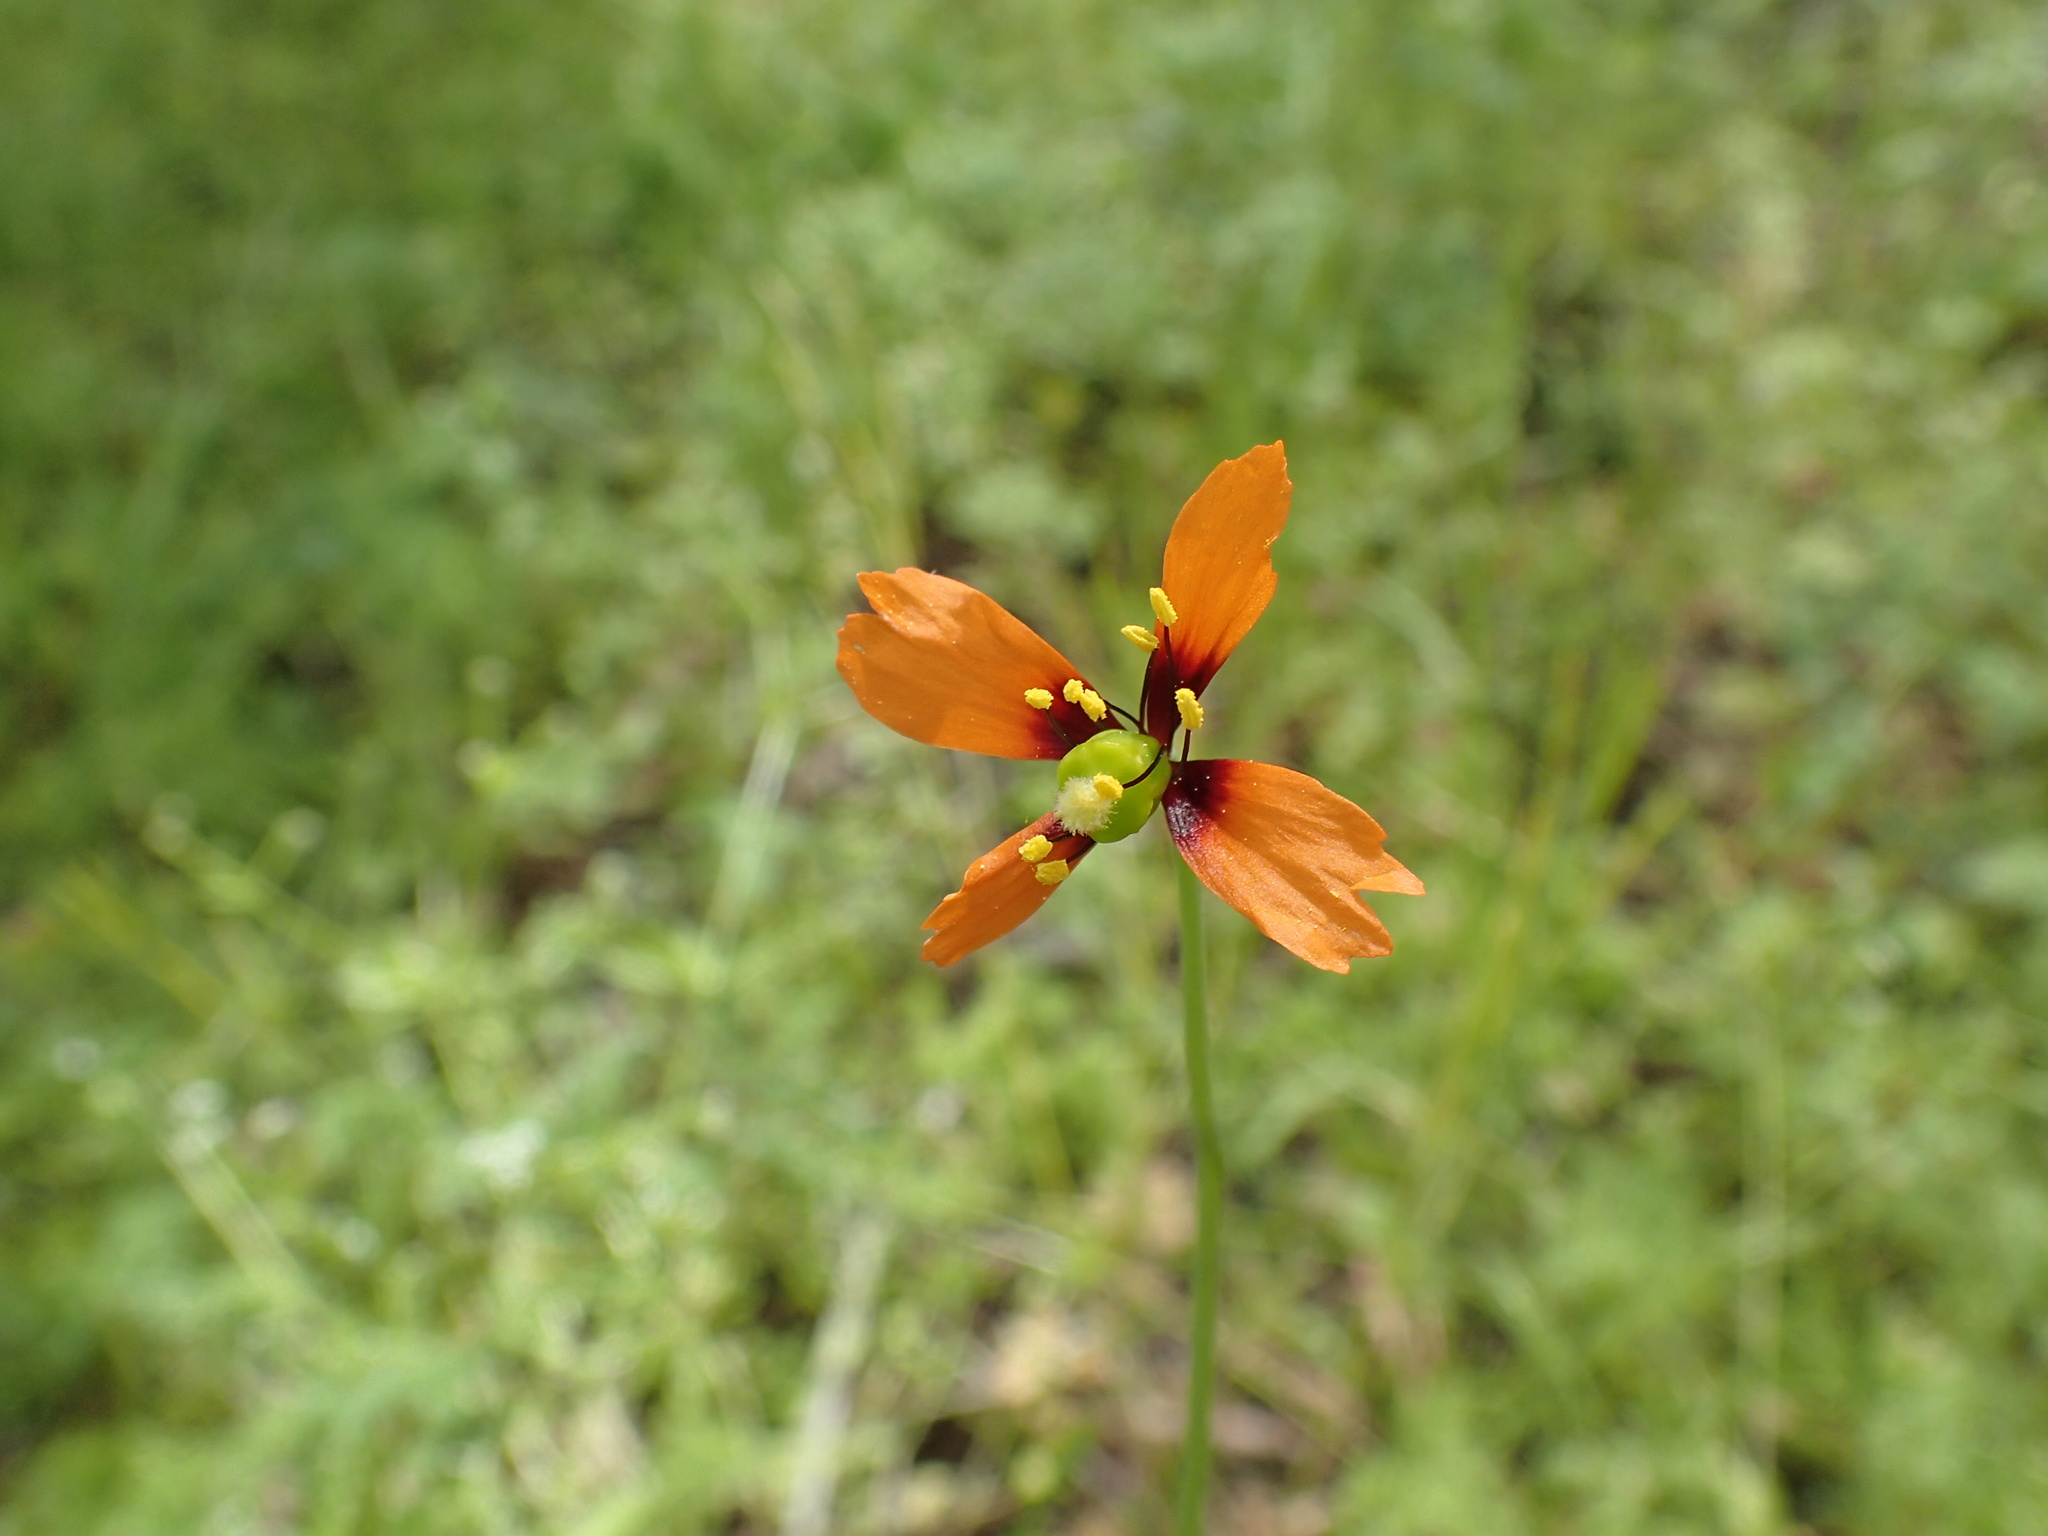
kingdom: Plantae
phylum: Tracheophyta
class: Magnoliopsida
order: Ranunculales
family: Papaveraceae
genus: Stylomecon
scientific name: Stylomecon heterophylla
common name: Flaming-poppy
